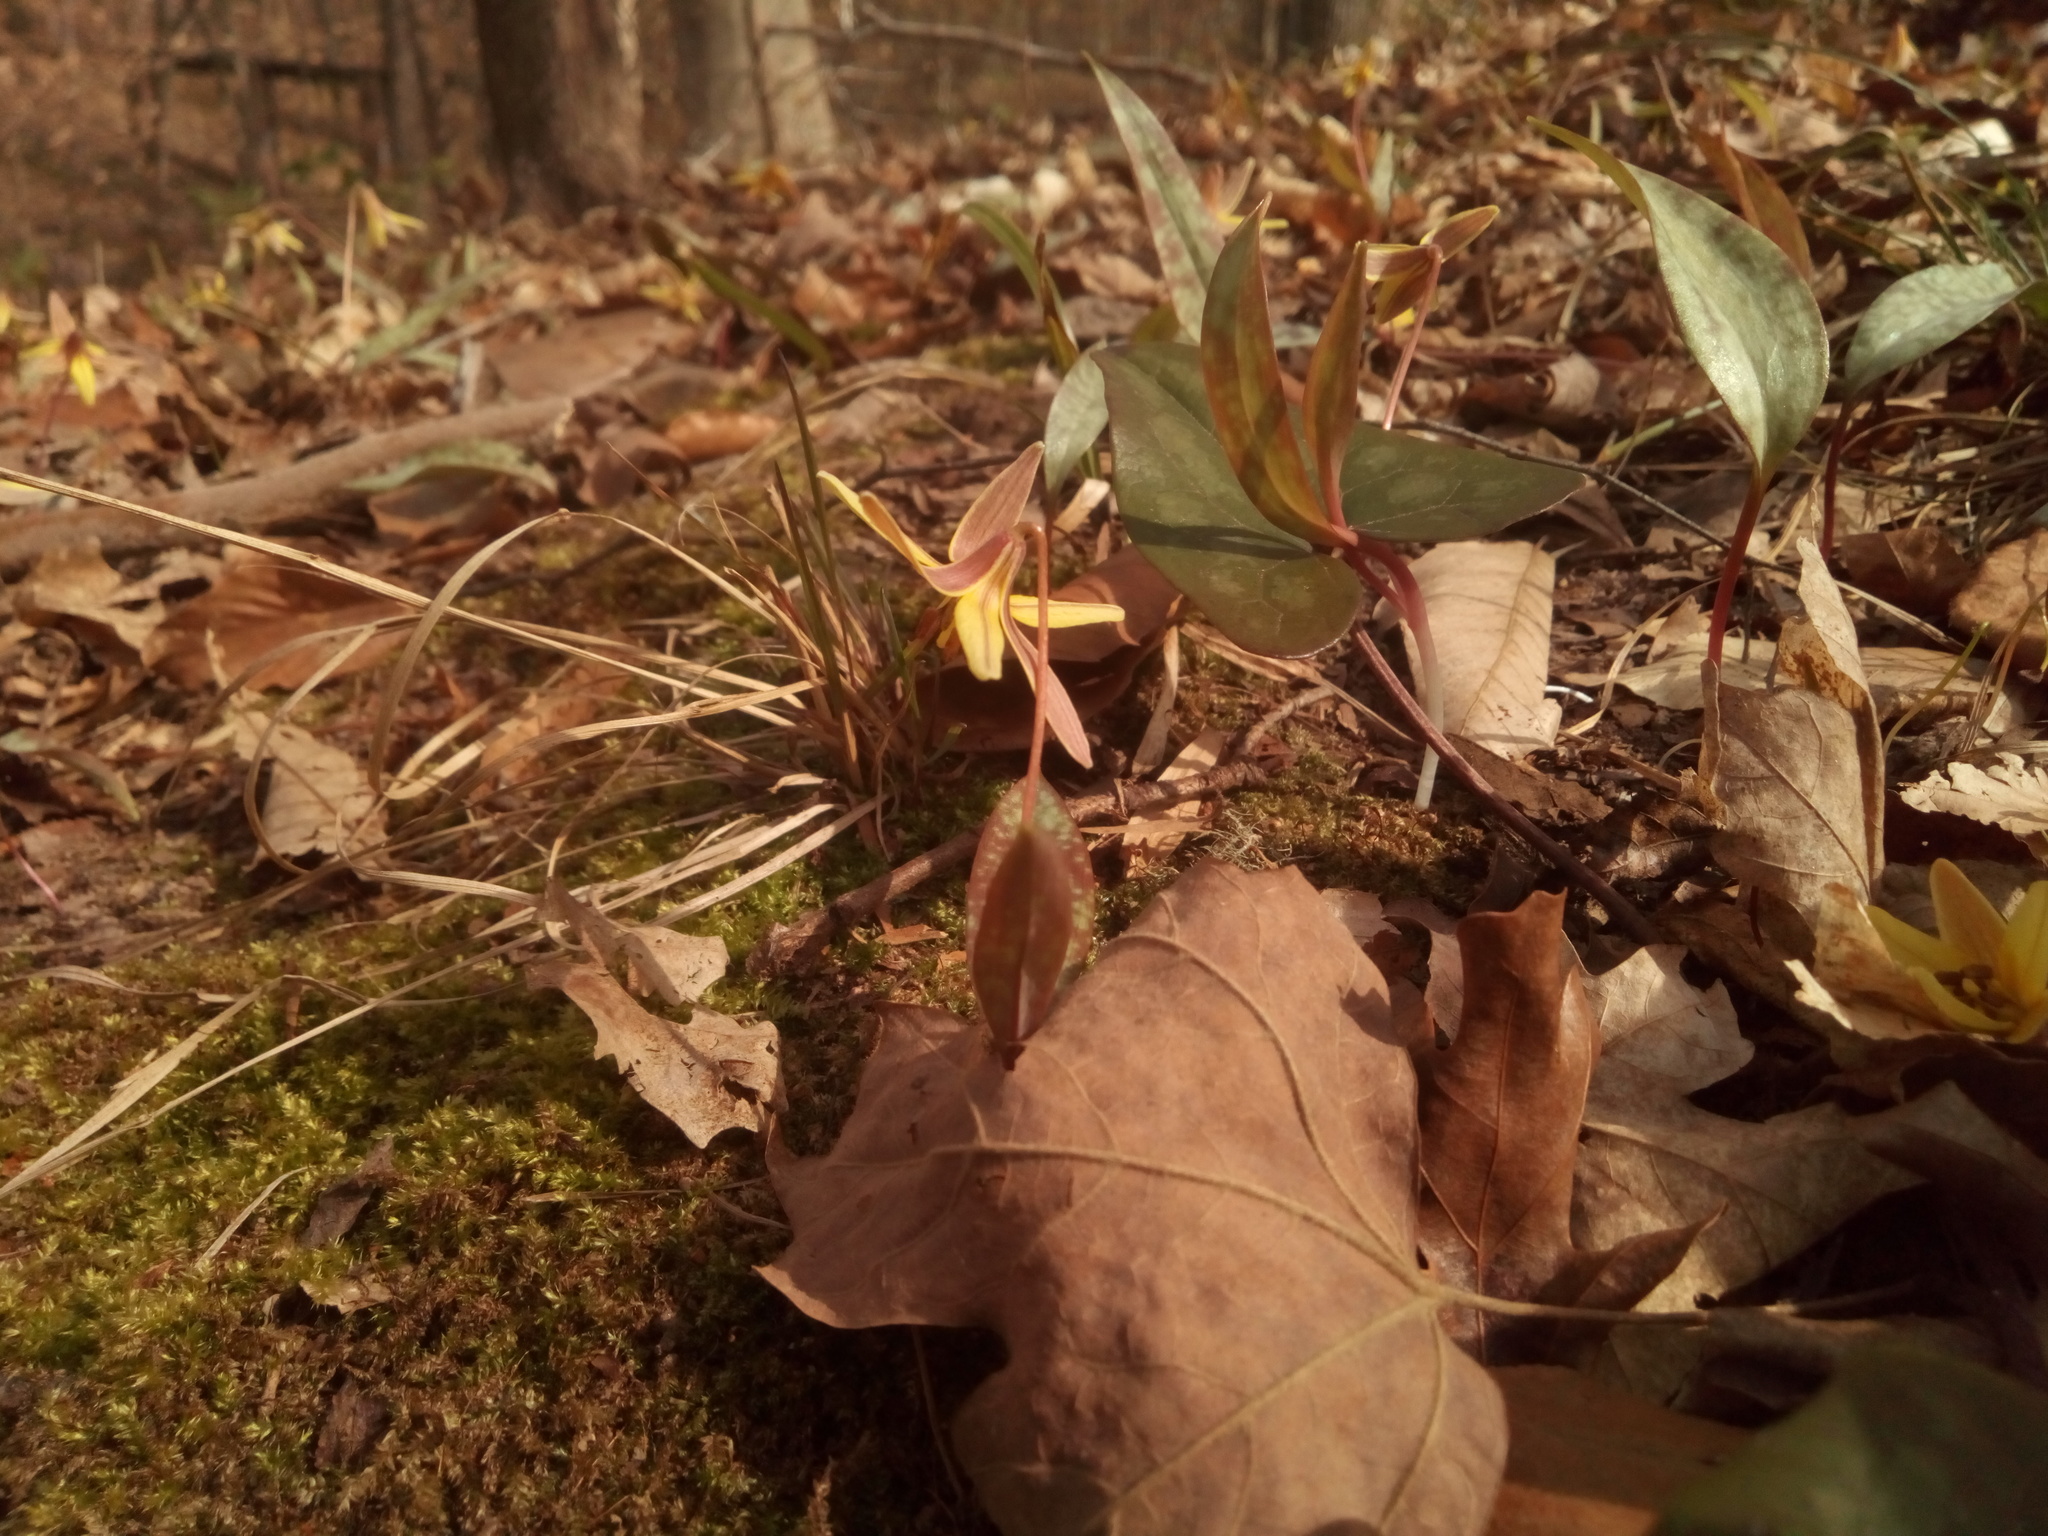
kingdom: Plantae
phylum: Tracheophyta
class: Liliopsida
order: Liliales
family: Liliaceae
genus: Erythronium
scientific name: Erythronium umbilicatum
